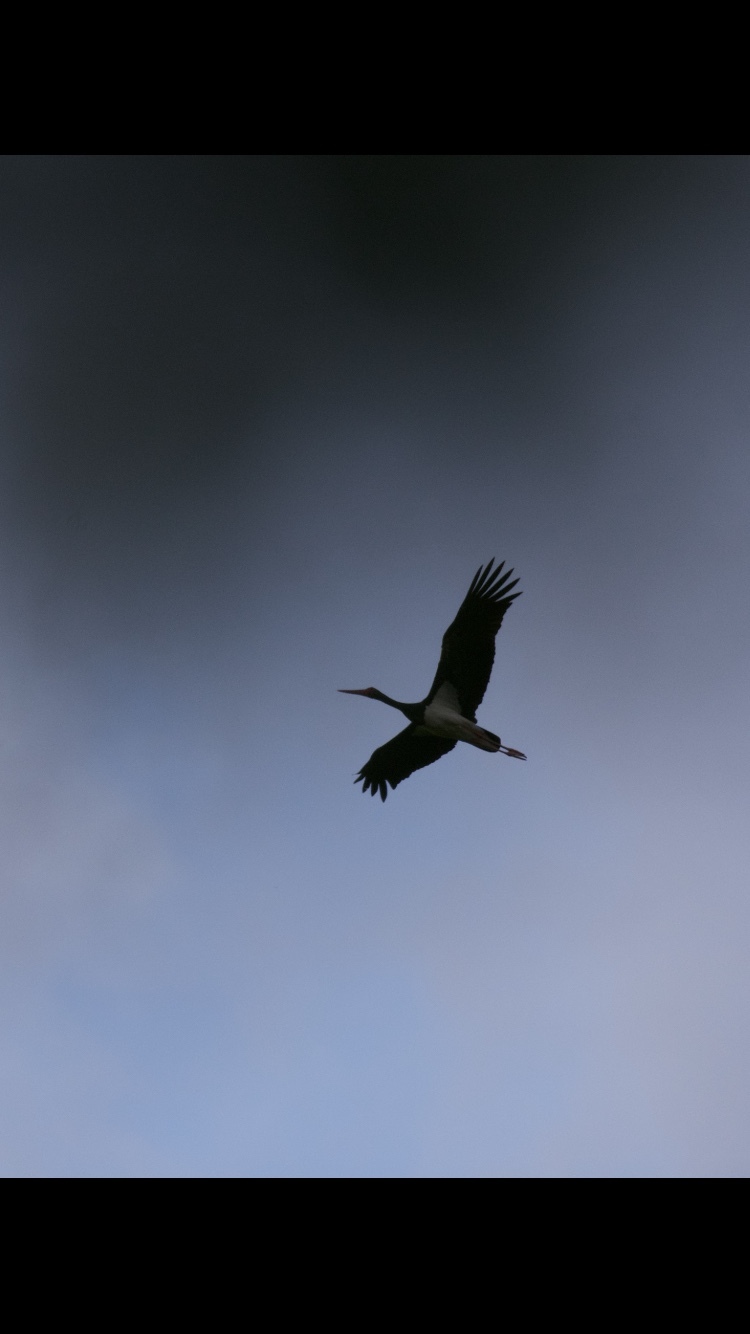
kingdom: Animalia
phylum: Chordata
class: Aves
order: Ciconiiformes
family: Ciconiidae
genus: Ciconia
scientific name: Ciconia nigra
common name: Black stork
